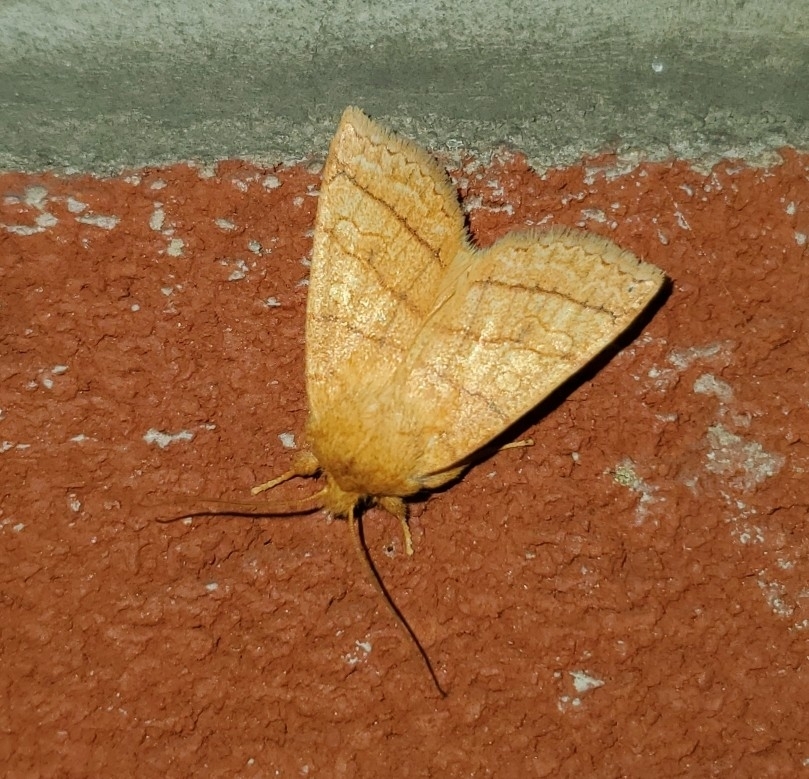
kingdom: Animalia
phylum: Arthropoda
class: Insecta
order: Lepidoptera
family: Noctuidae
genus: Pyreferra
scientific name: Pyreferra hesperidago
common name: Mustard sallow
